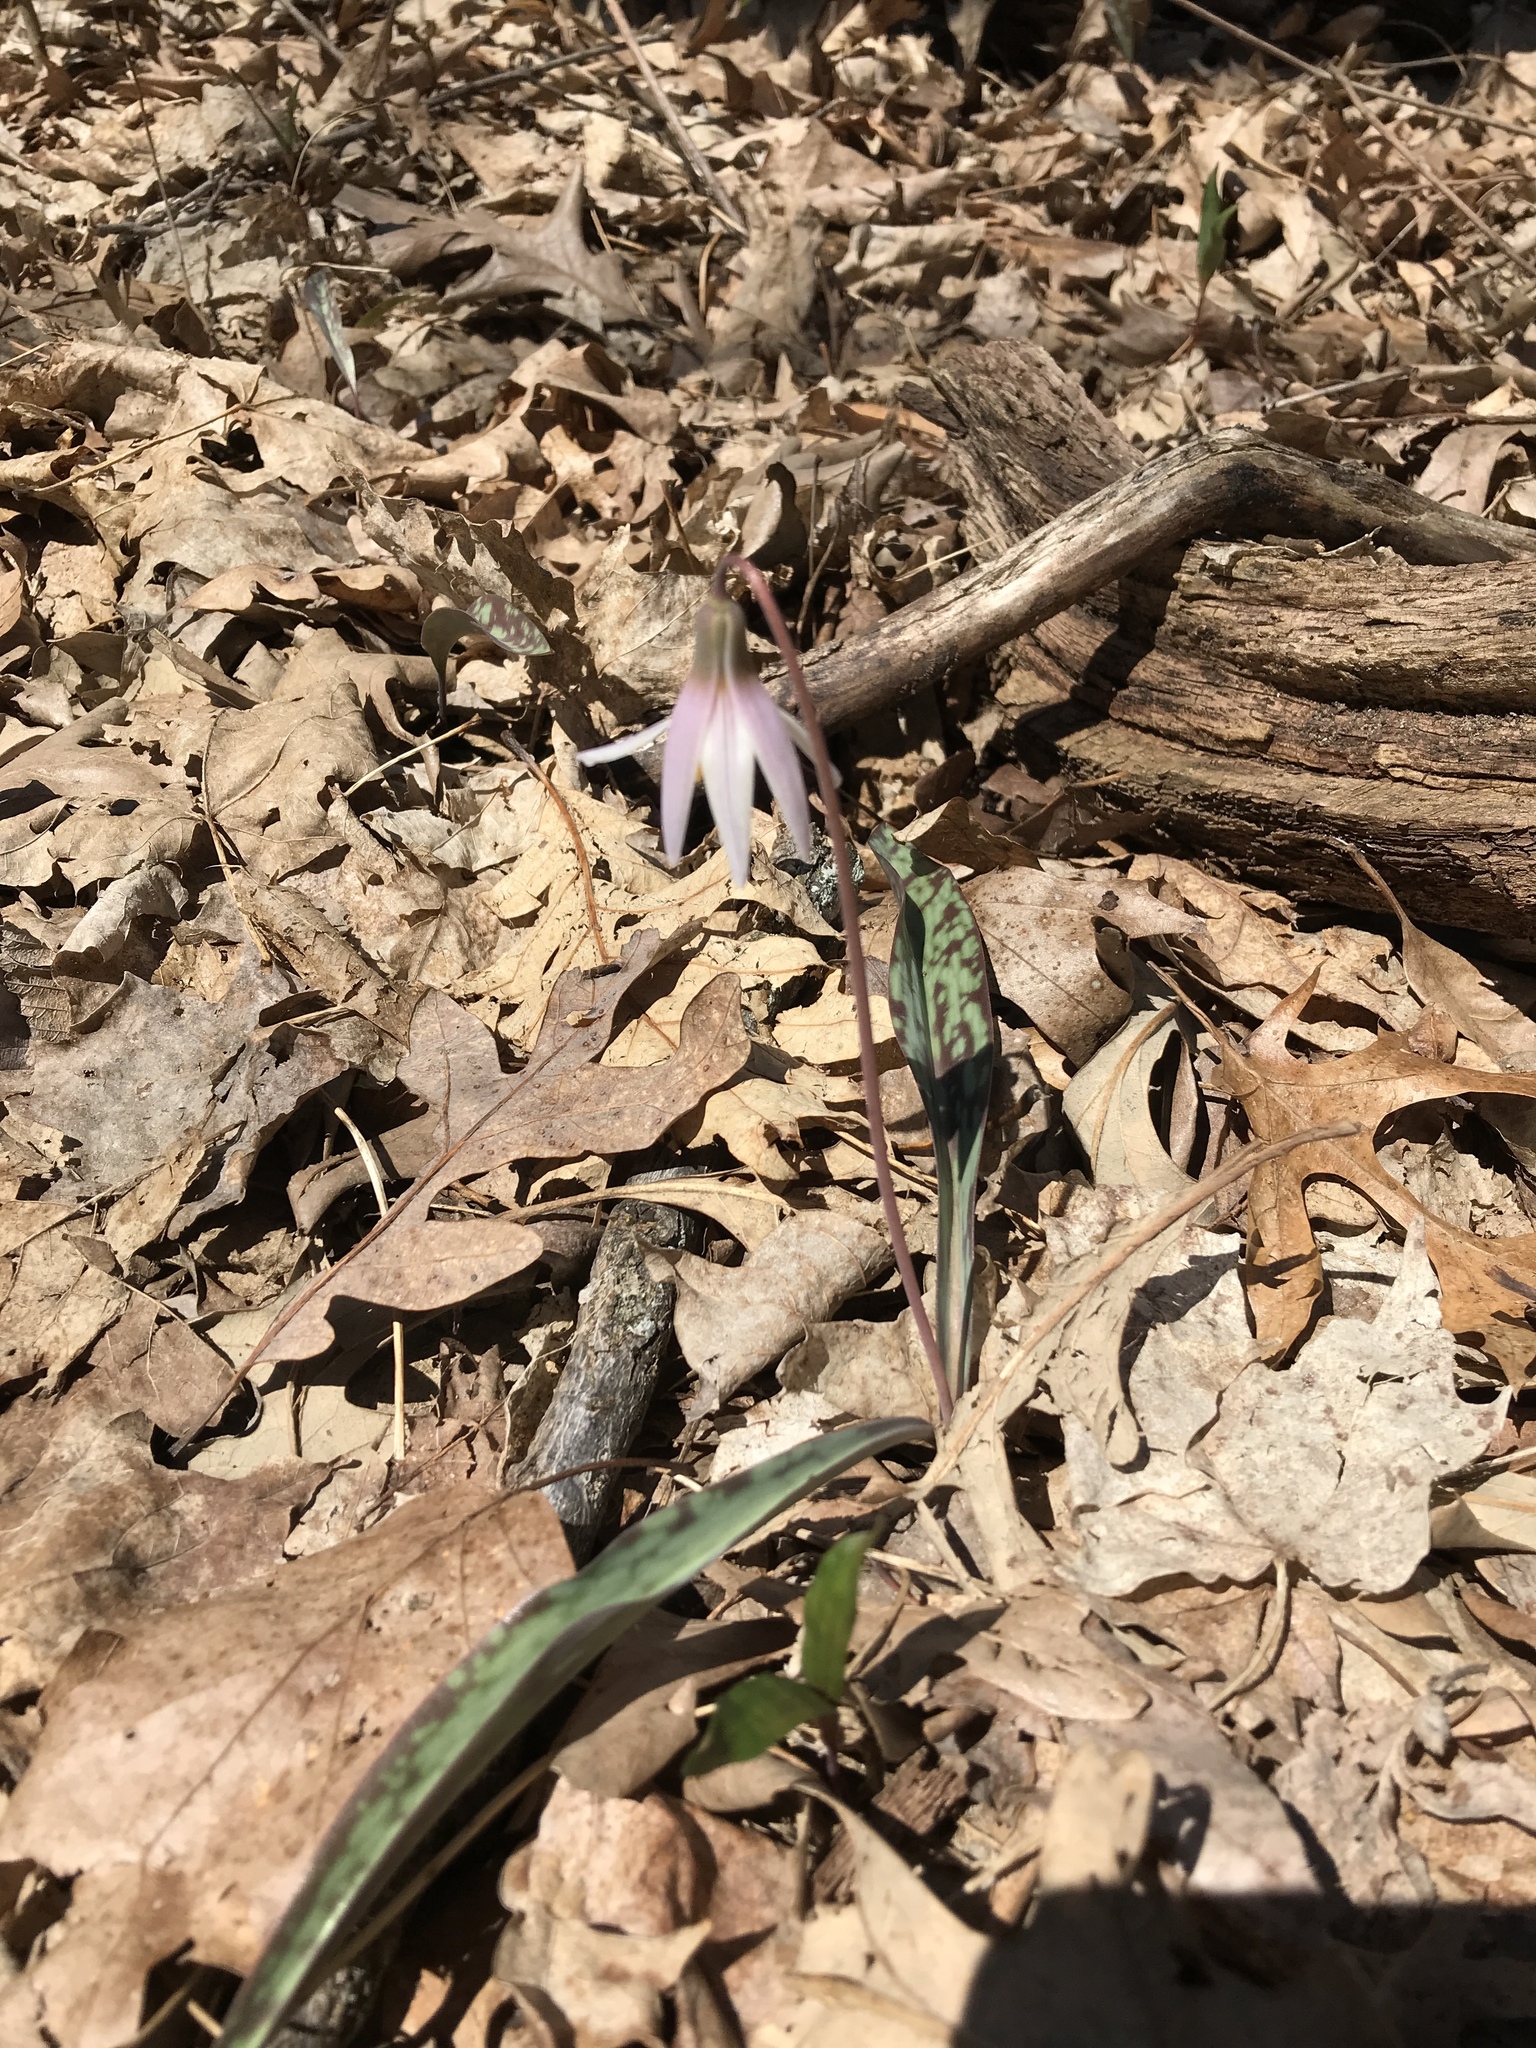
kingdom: Plantae
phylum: Tracheophyta
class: Liliopsida
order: Liliales
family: Liliaceae
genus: Erythronium
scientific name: Erythronium albidum
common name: White trout-lily
